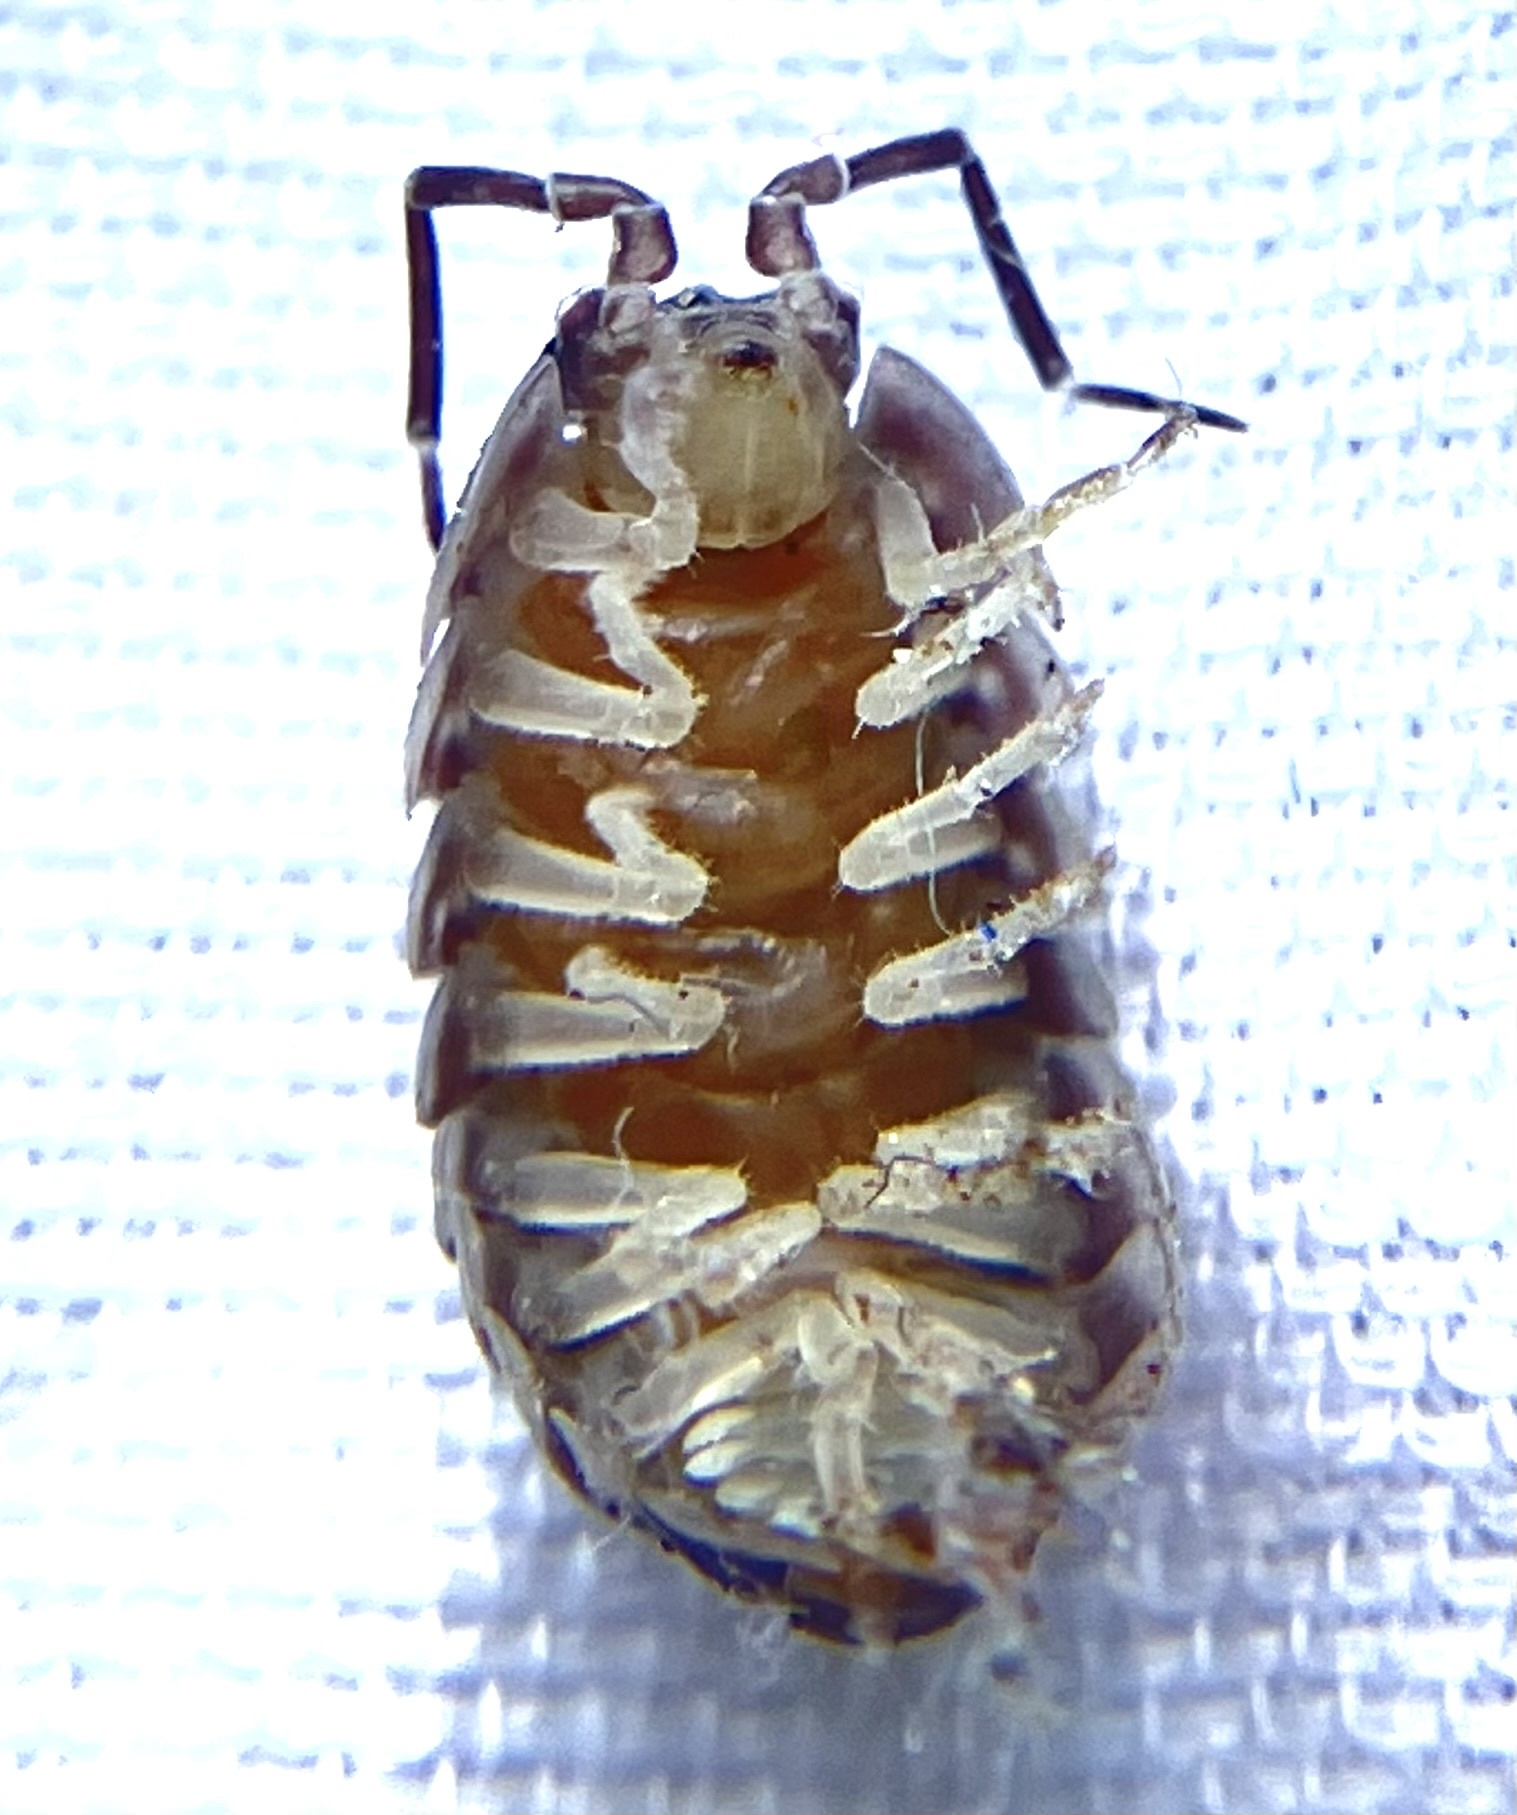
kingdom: Animalia
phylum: Arthropoda
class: Malacostraca
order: Isopoda
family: Cylisticidae
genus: Cylisticus
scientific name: Cylisticus convexus
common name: Curly woodlouse
